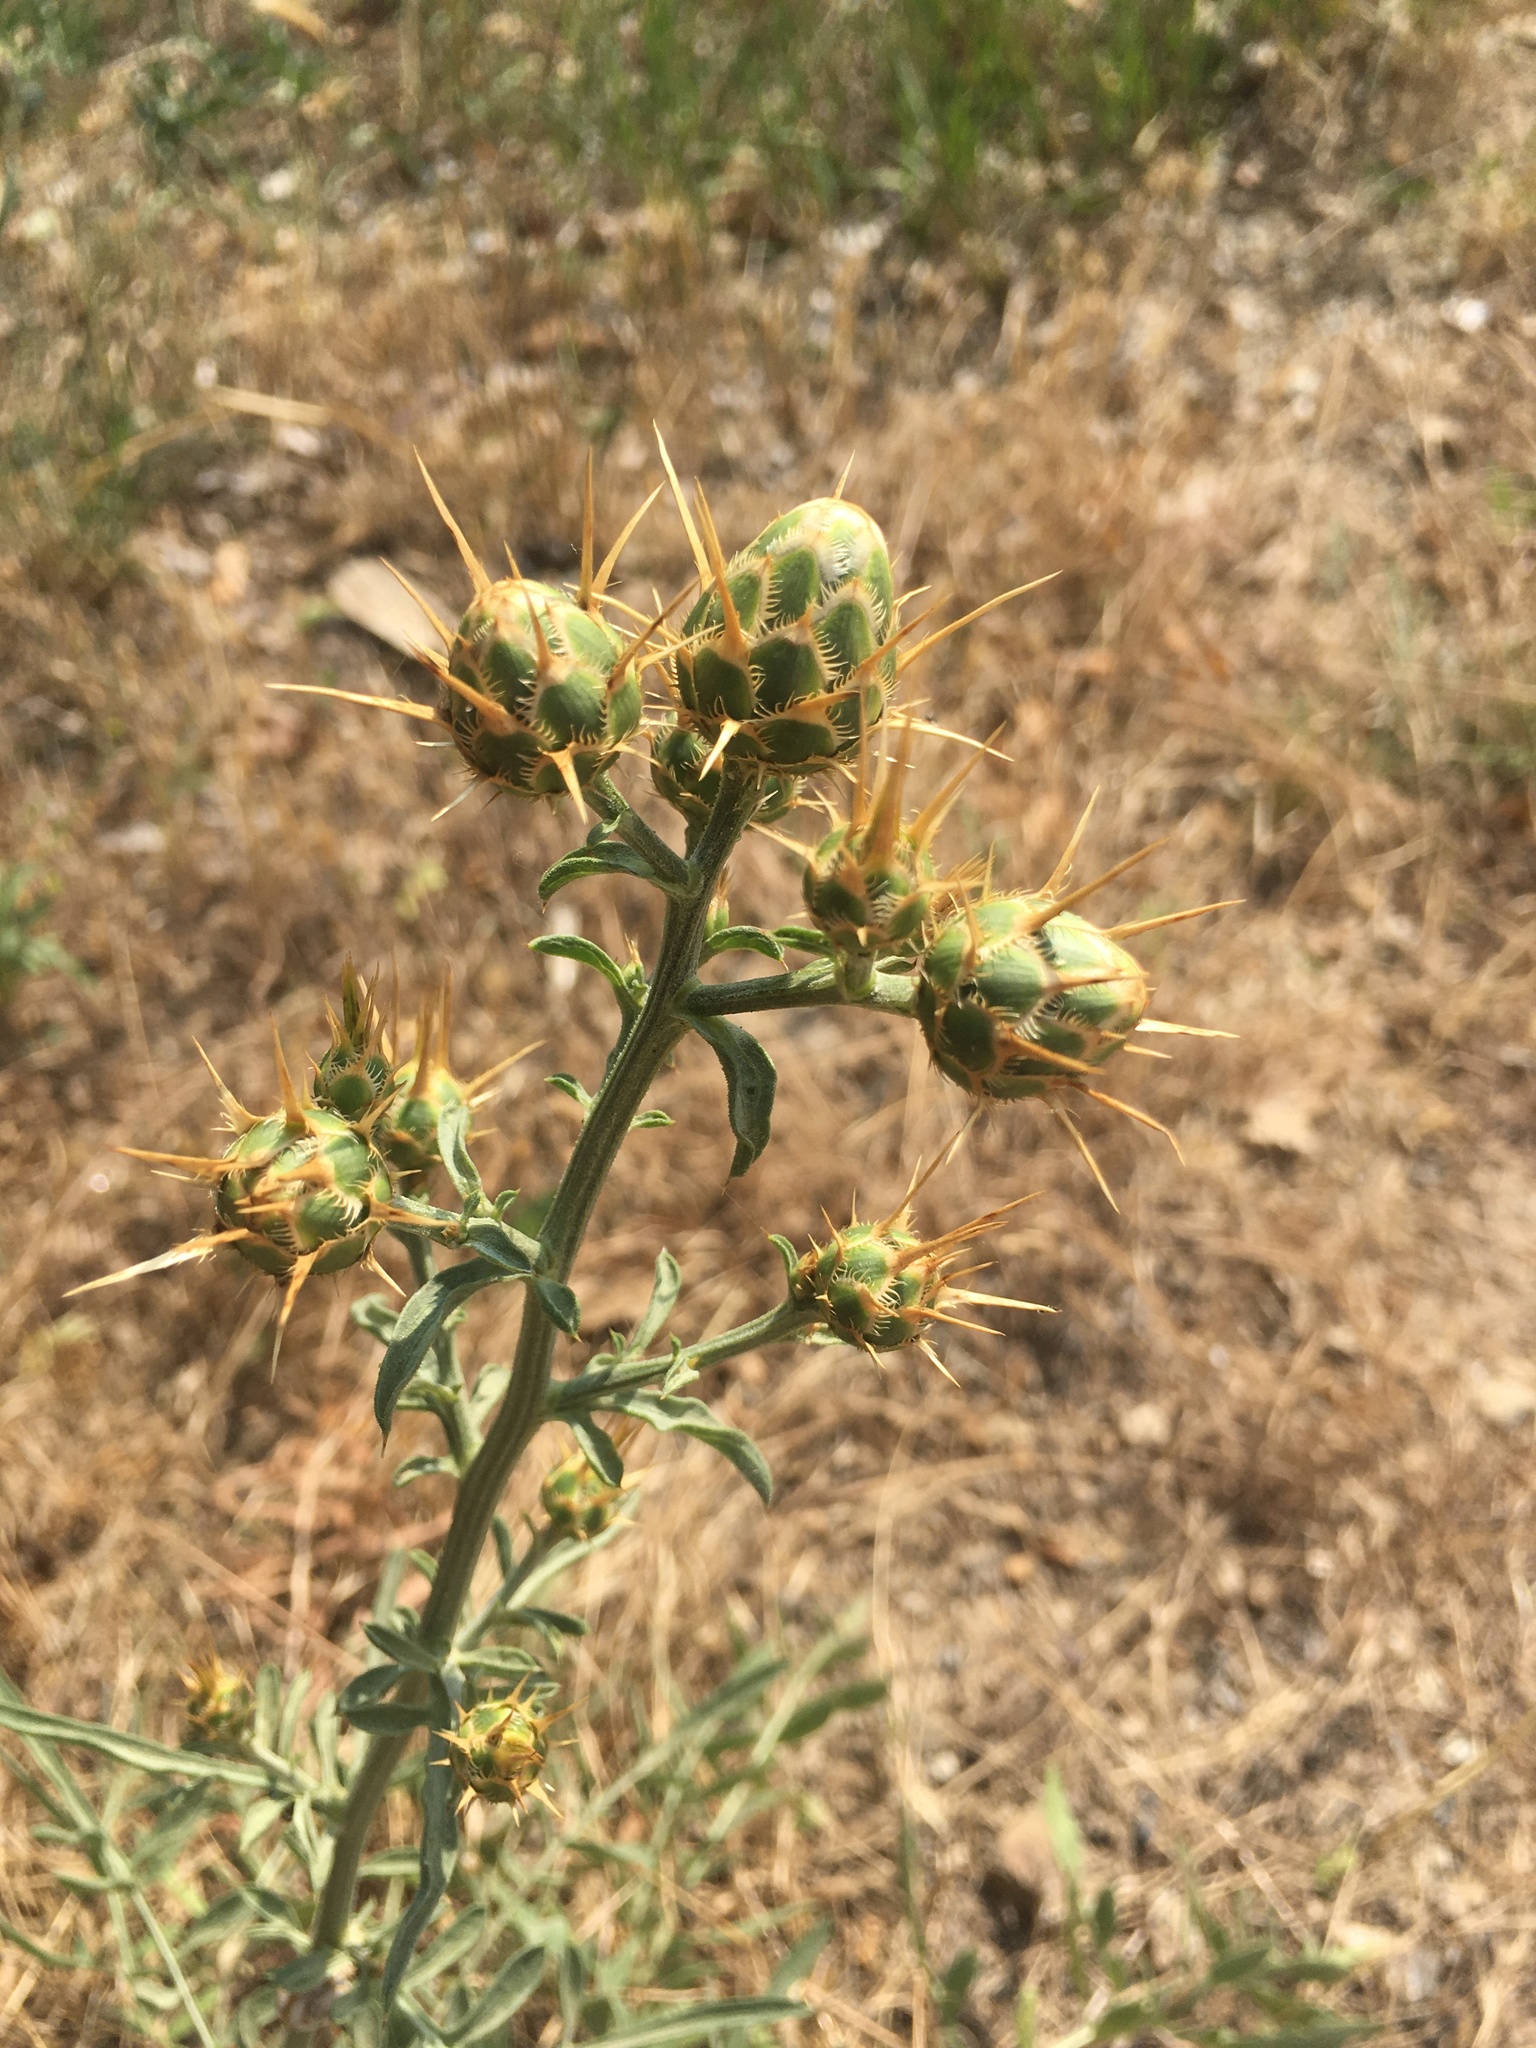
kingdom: Plantae
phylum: Tracheophyta
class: Magnoliopsida
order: Asterales
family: Asteraceae
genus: Centaurea
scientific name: Centaurea salonitana
